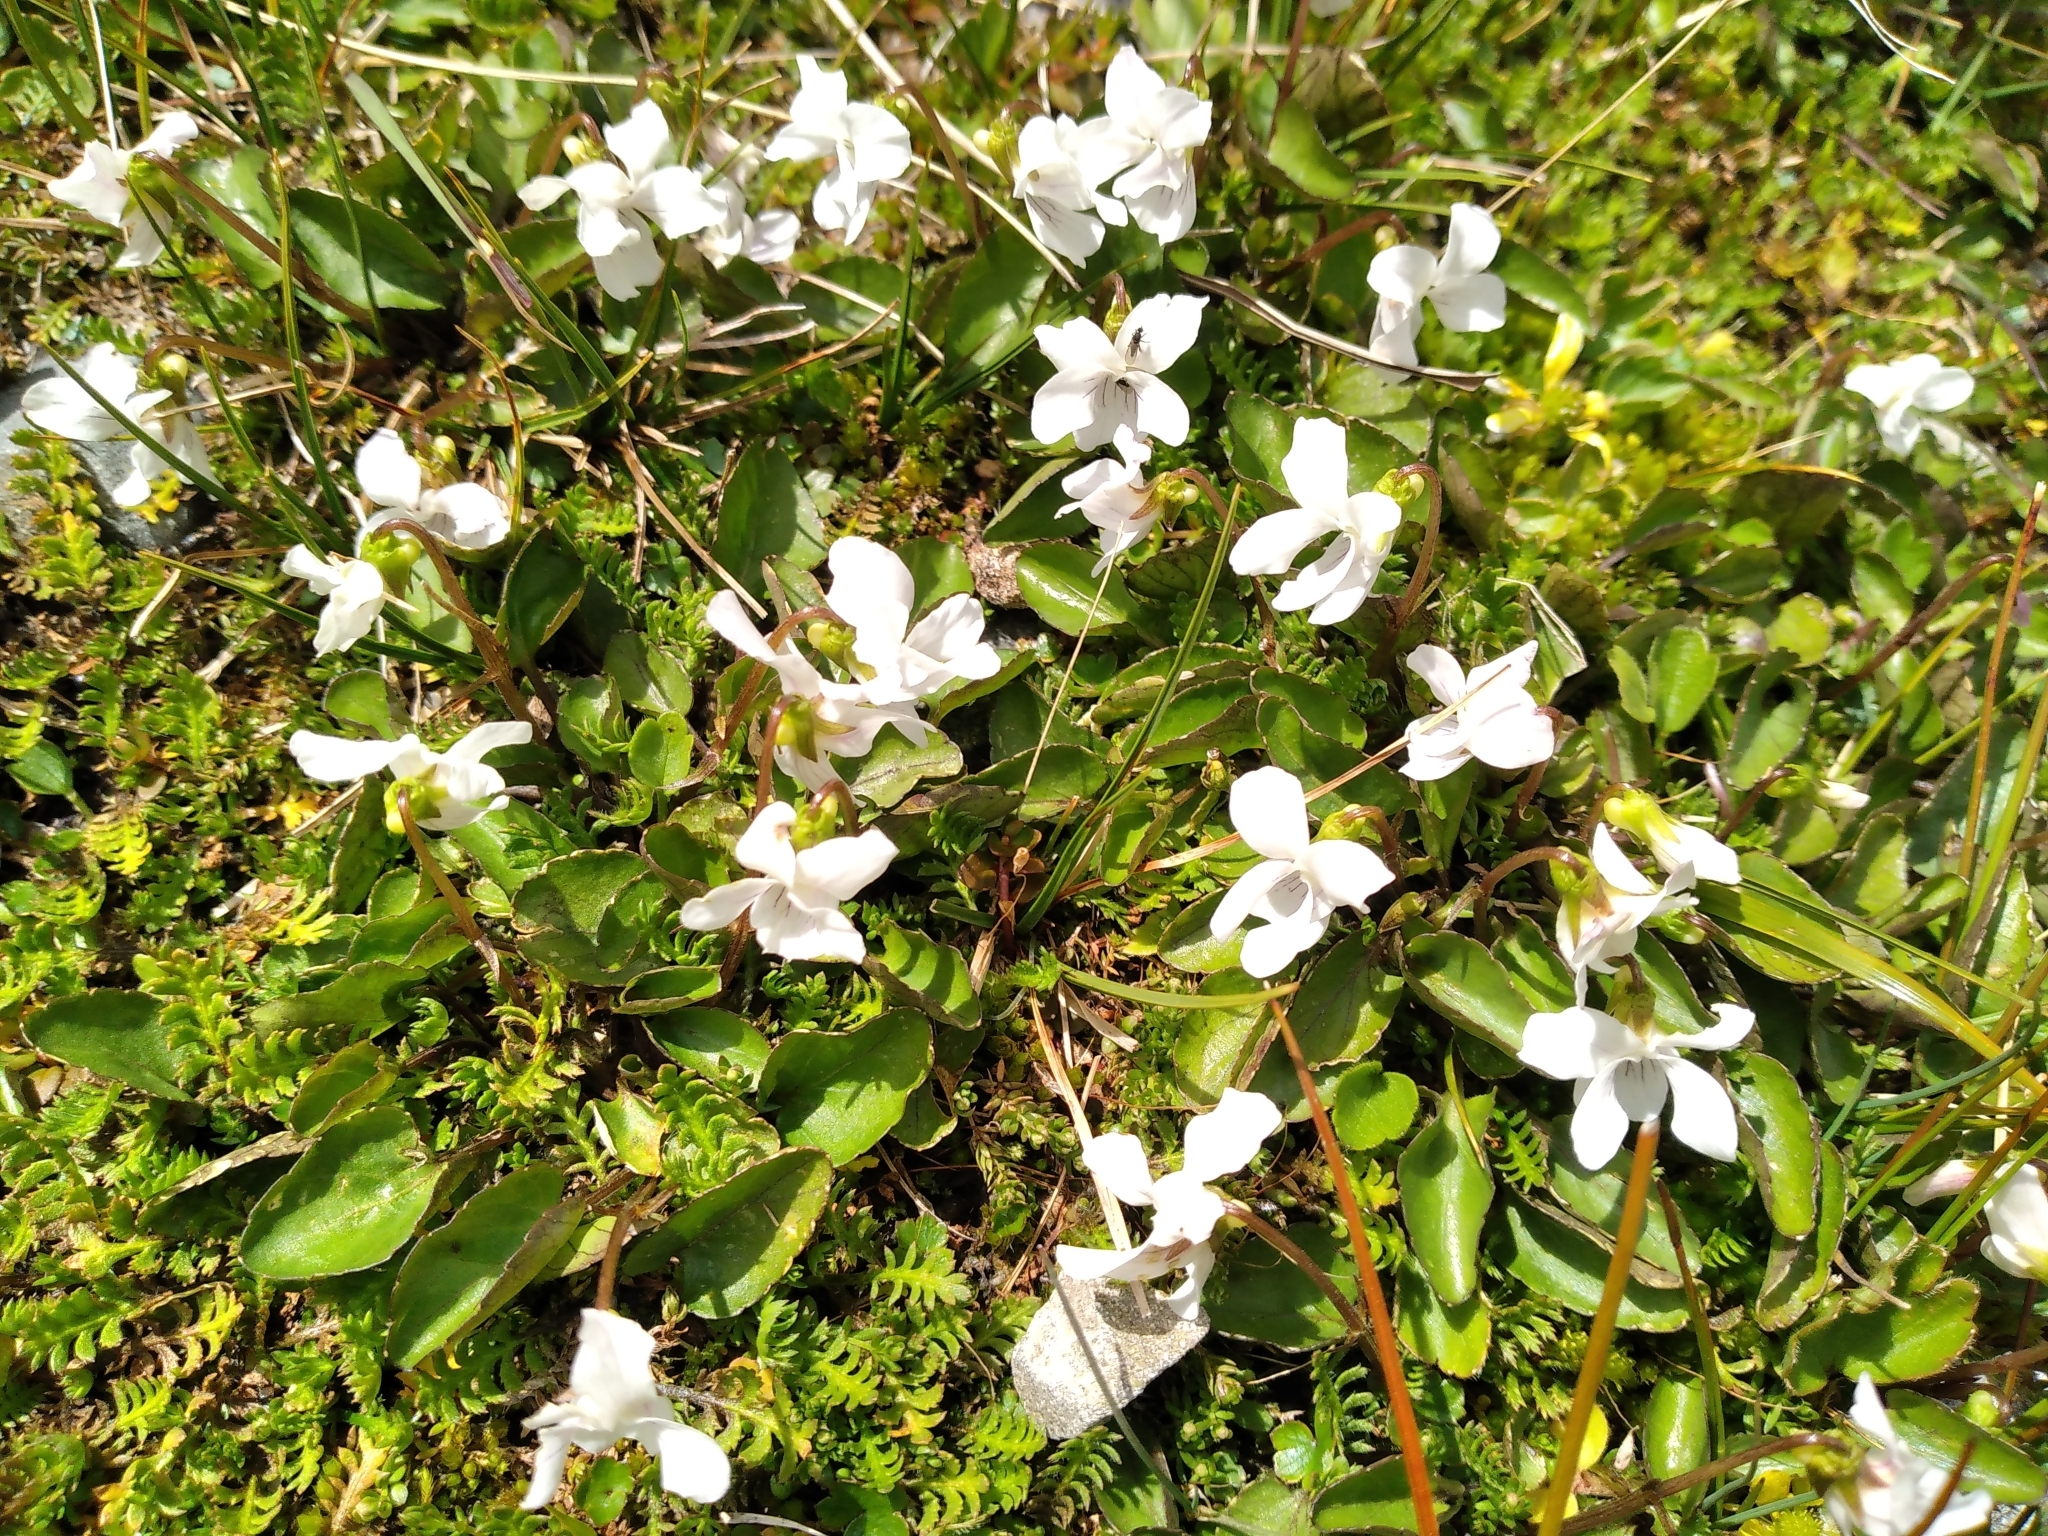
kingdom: Plantae
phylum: Tracheophyta
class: Magnoliopsida
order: Malpighiales
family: Violaceae
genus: Viola
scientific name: Viola cunninghamii
